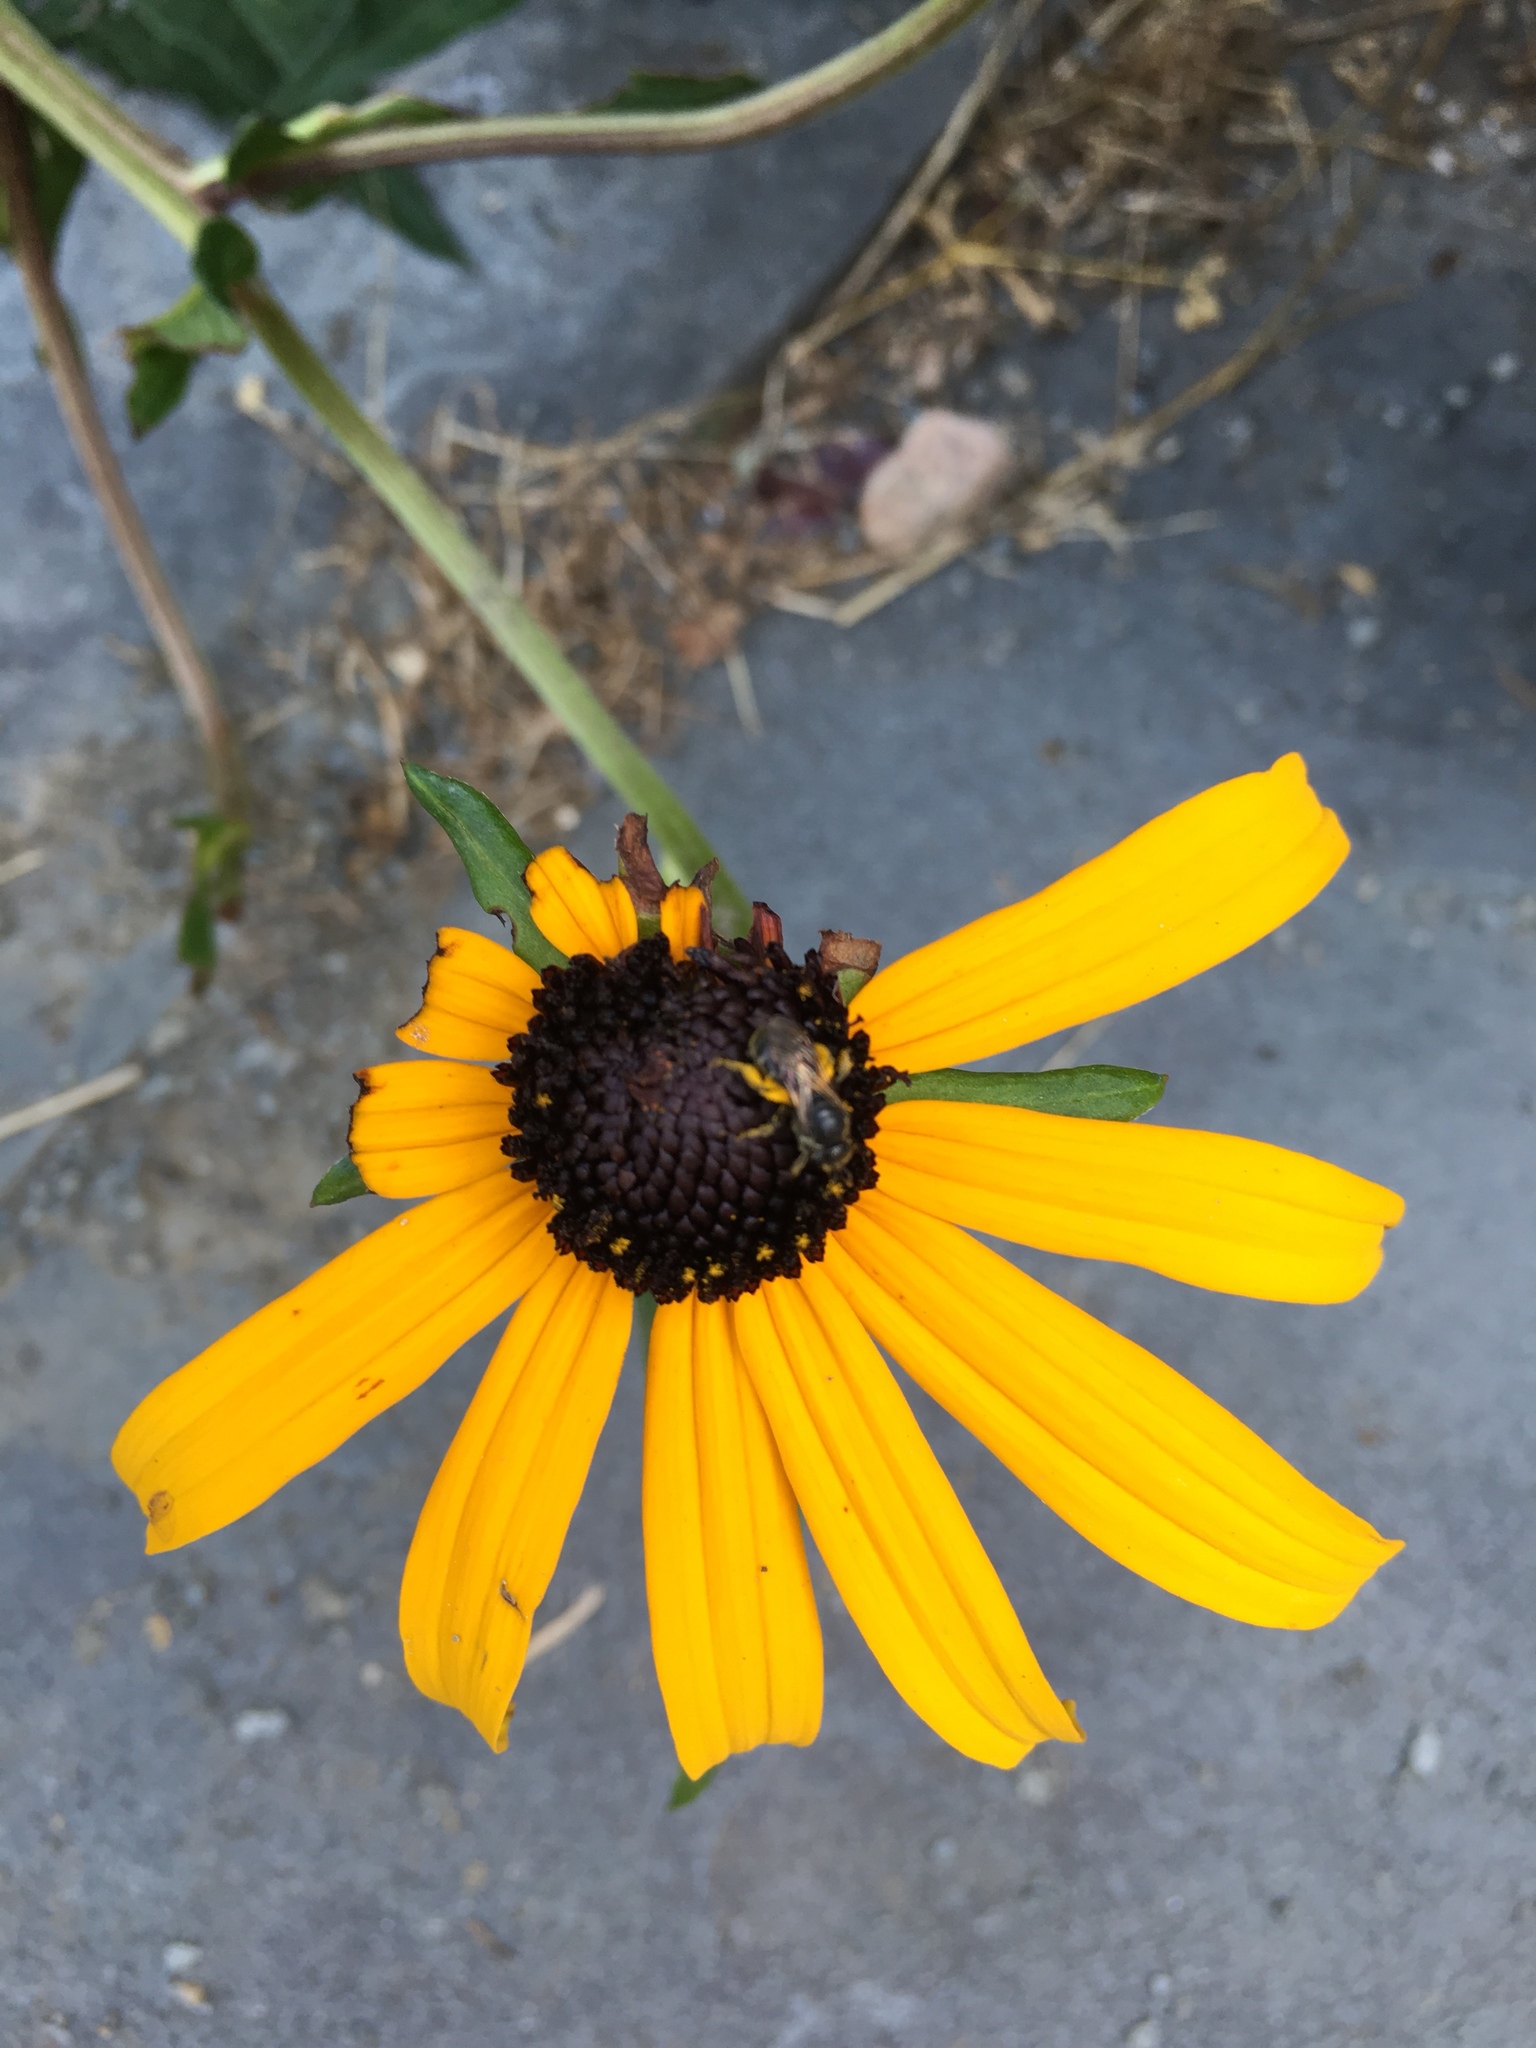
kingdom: Animalia
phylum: Arthropoda
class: Insecta
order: Hymenoptera
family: Halictidae
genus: Lasioglossum
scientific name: Lasioglossum
